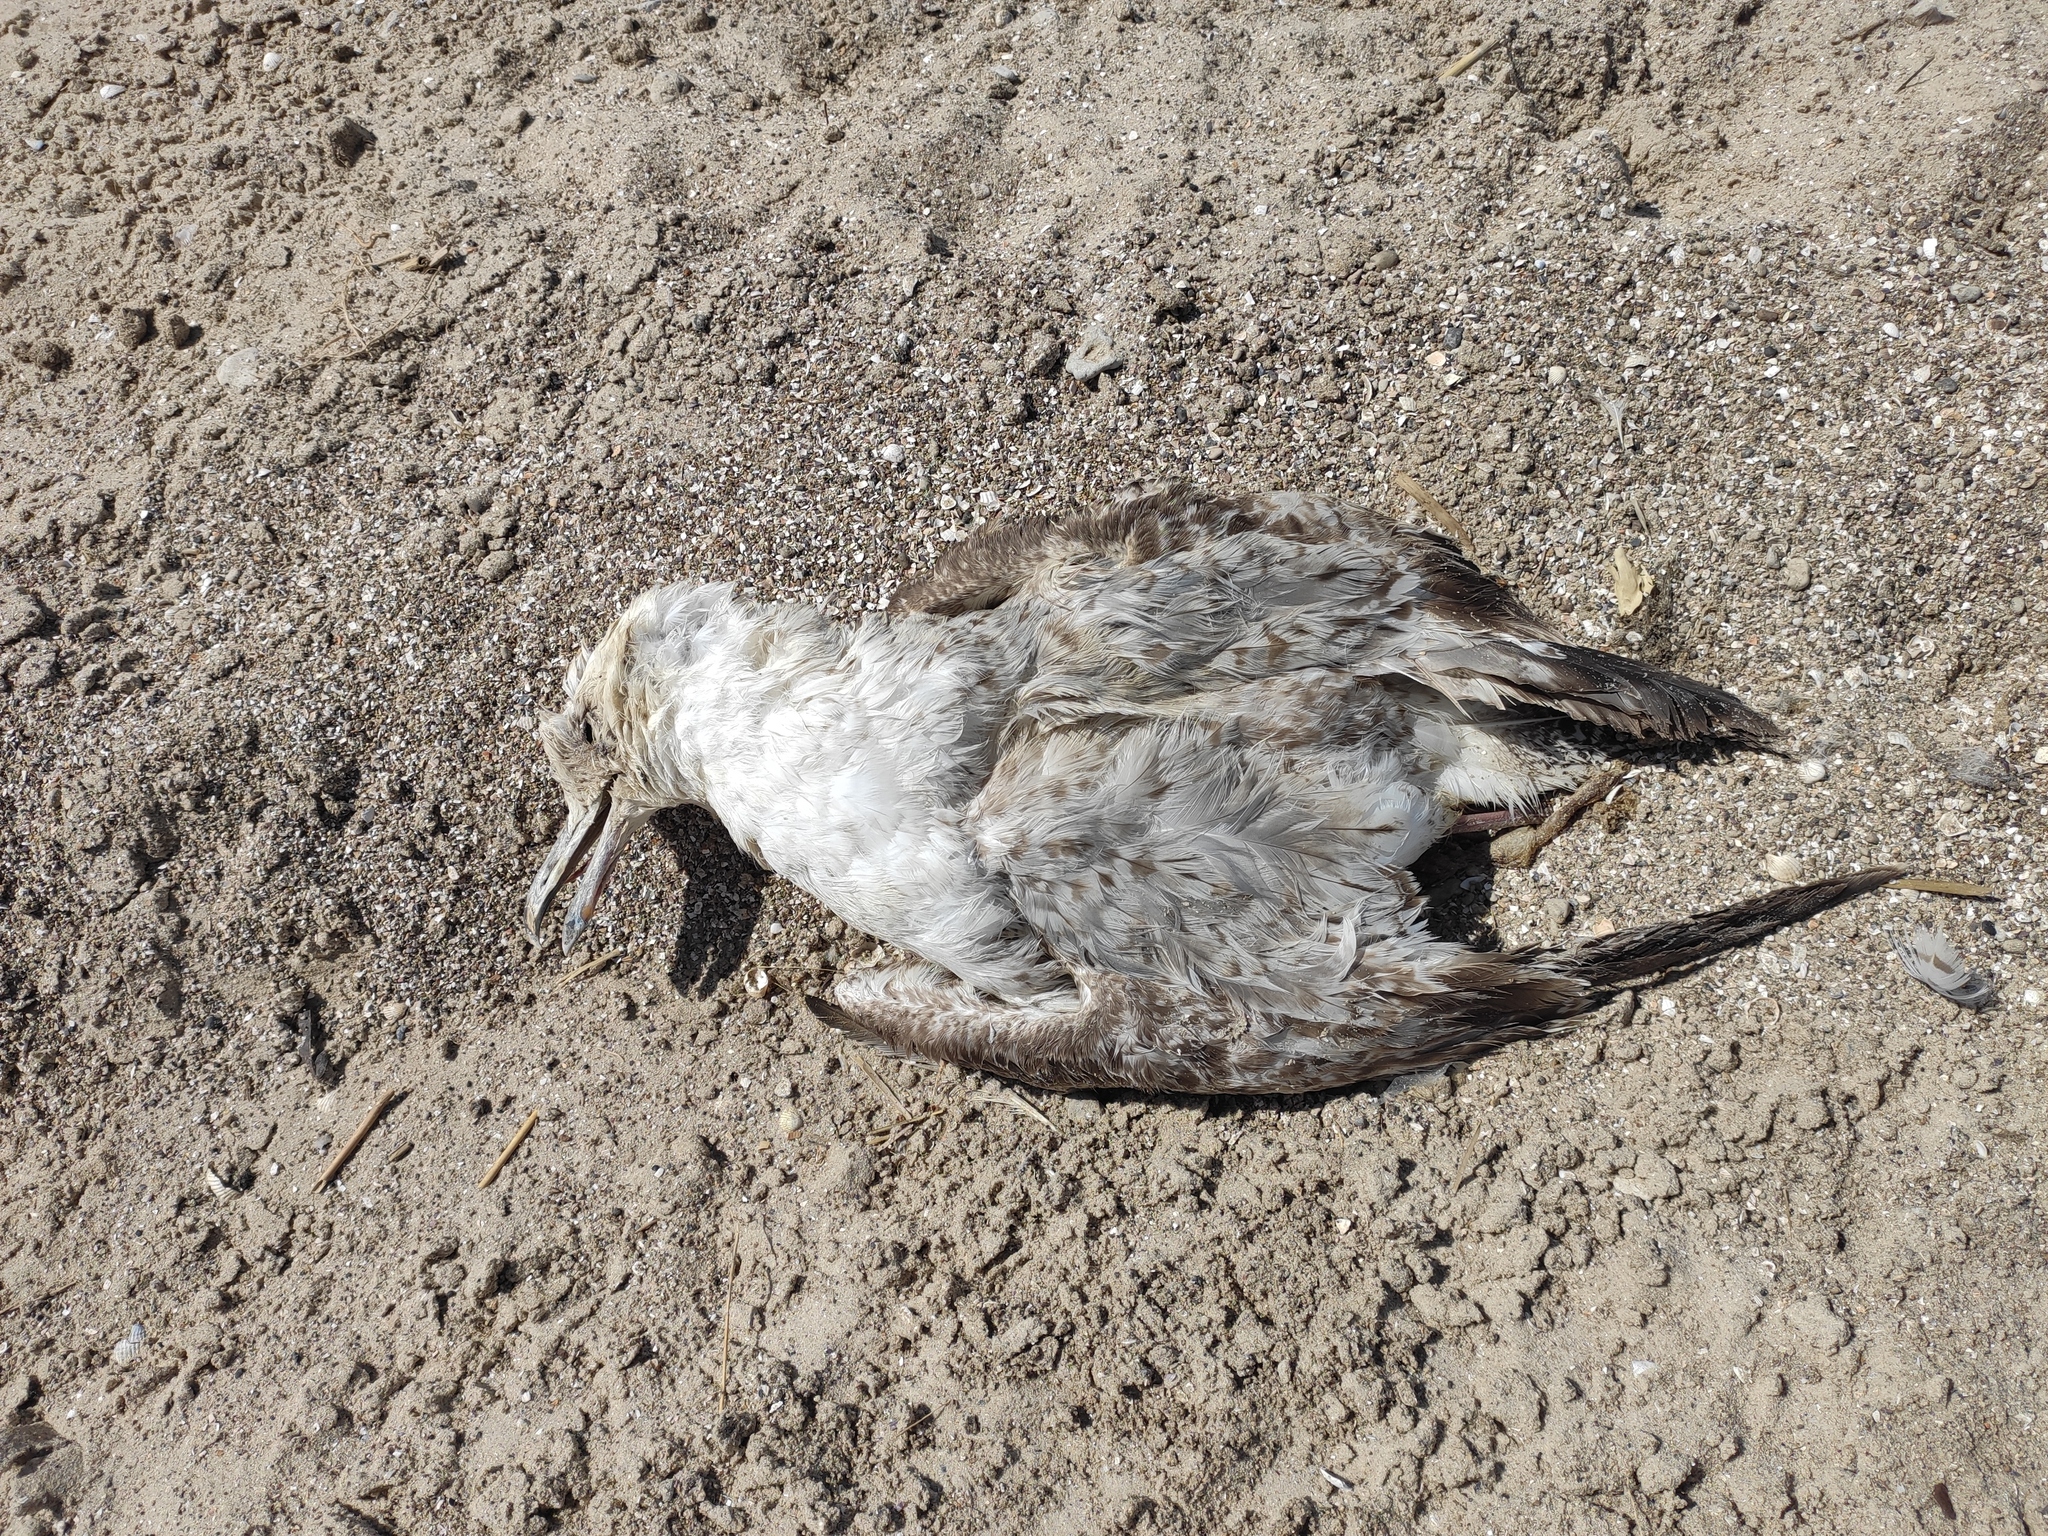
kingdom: Animalia
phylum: Chordata
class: Aves
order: Charadriiformes
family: Laridae
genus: Larus
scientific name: Larus cachinnans
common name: Caspian gull
